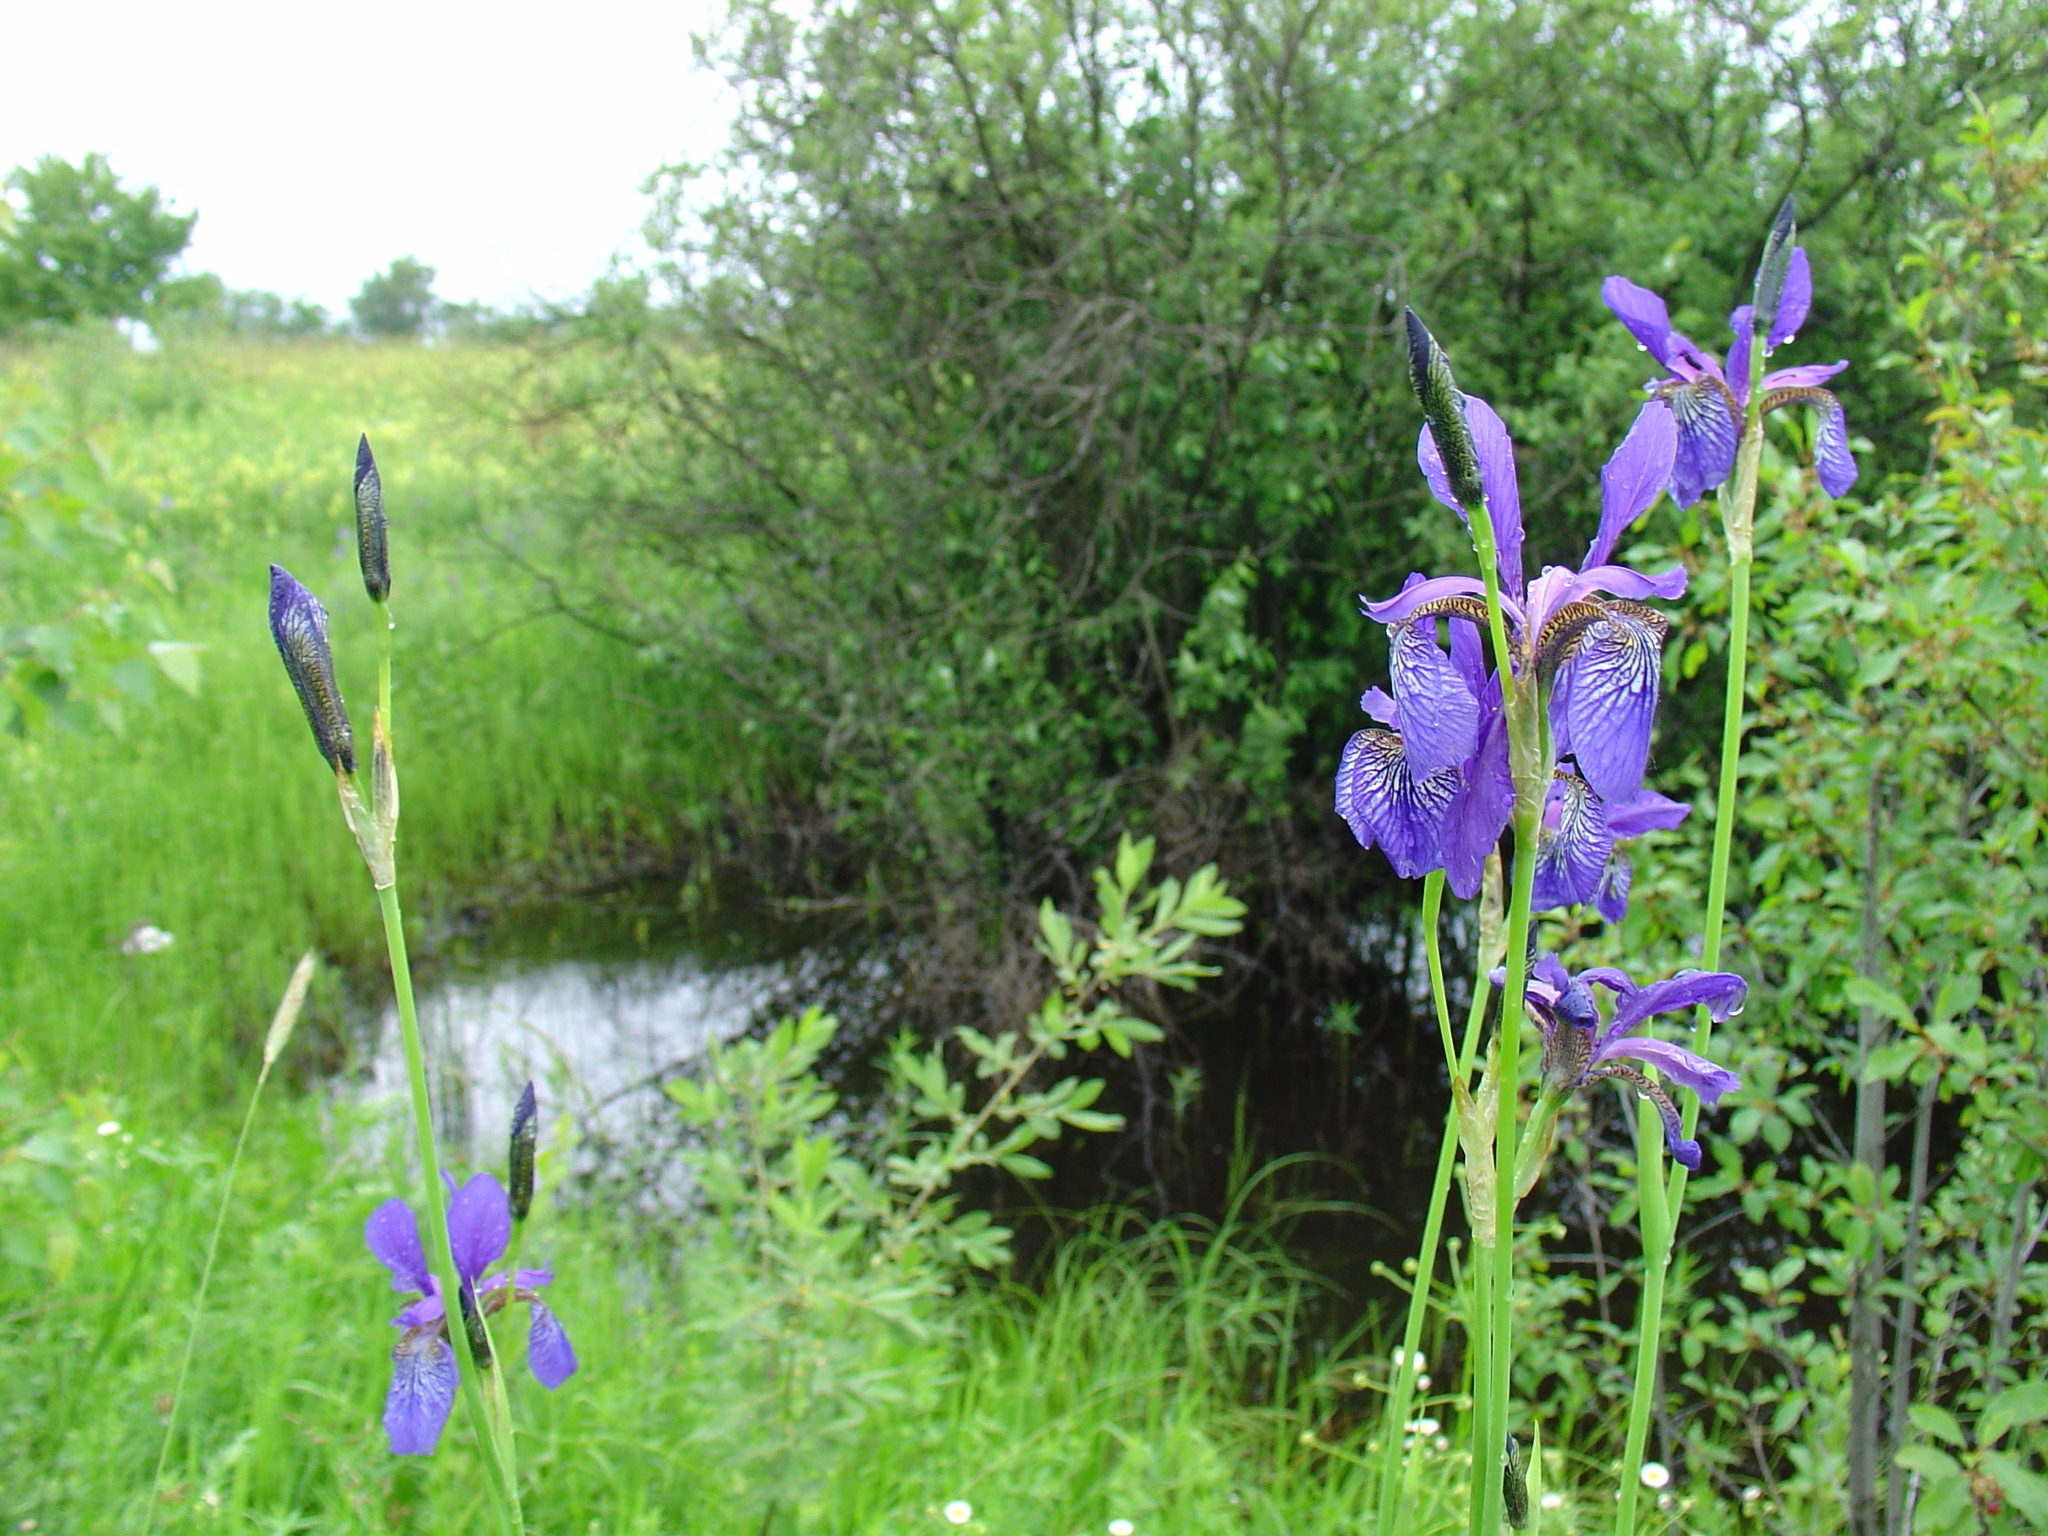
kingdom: Plantae
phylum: Tracheophyta
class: Liliopsida
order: Asparagales
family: Iridaceae
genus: Iris
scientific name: Iris sibirica
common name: Siberian iris
